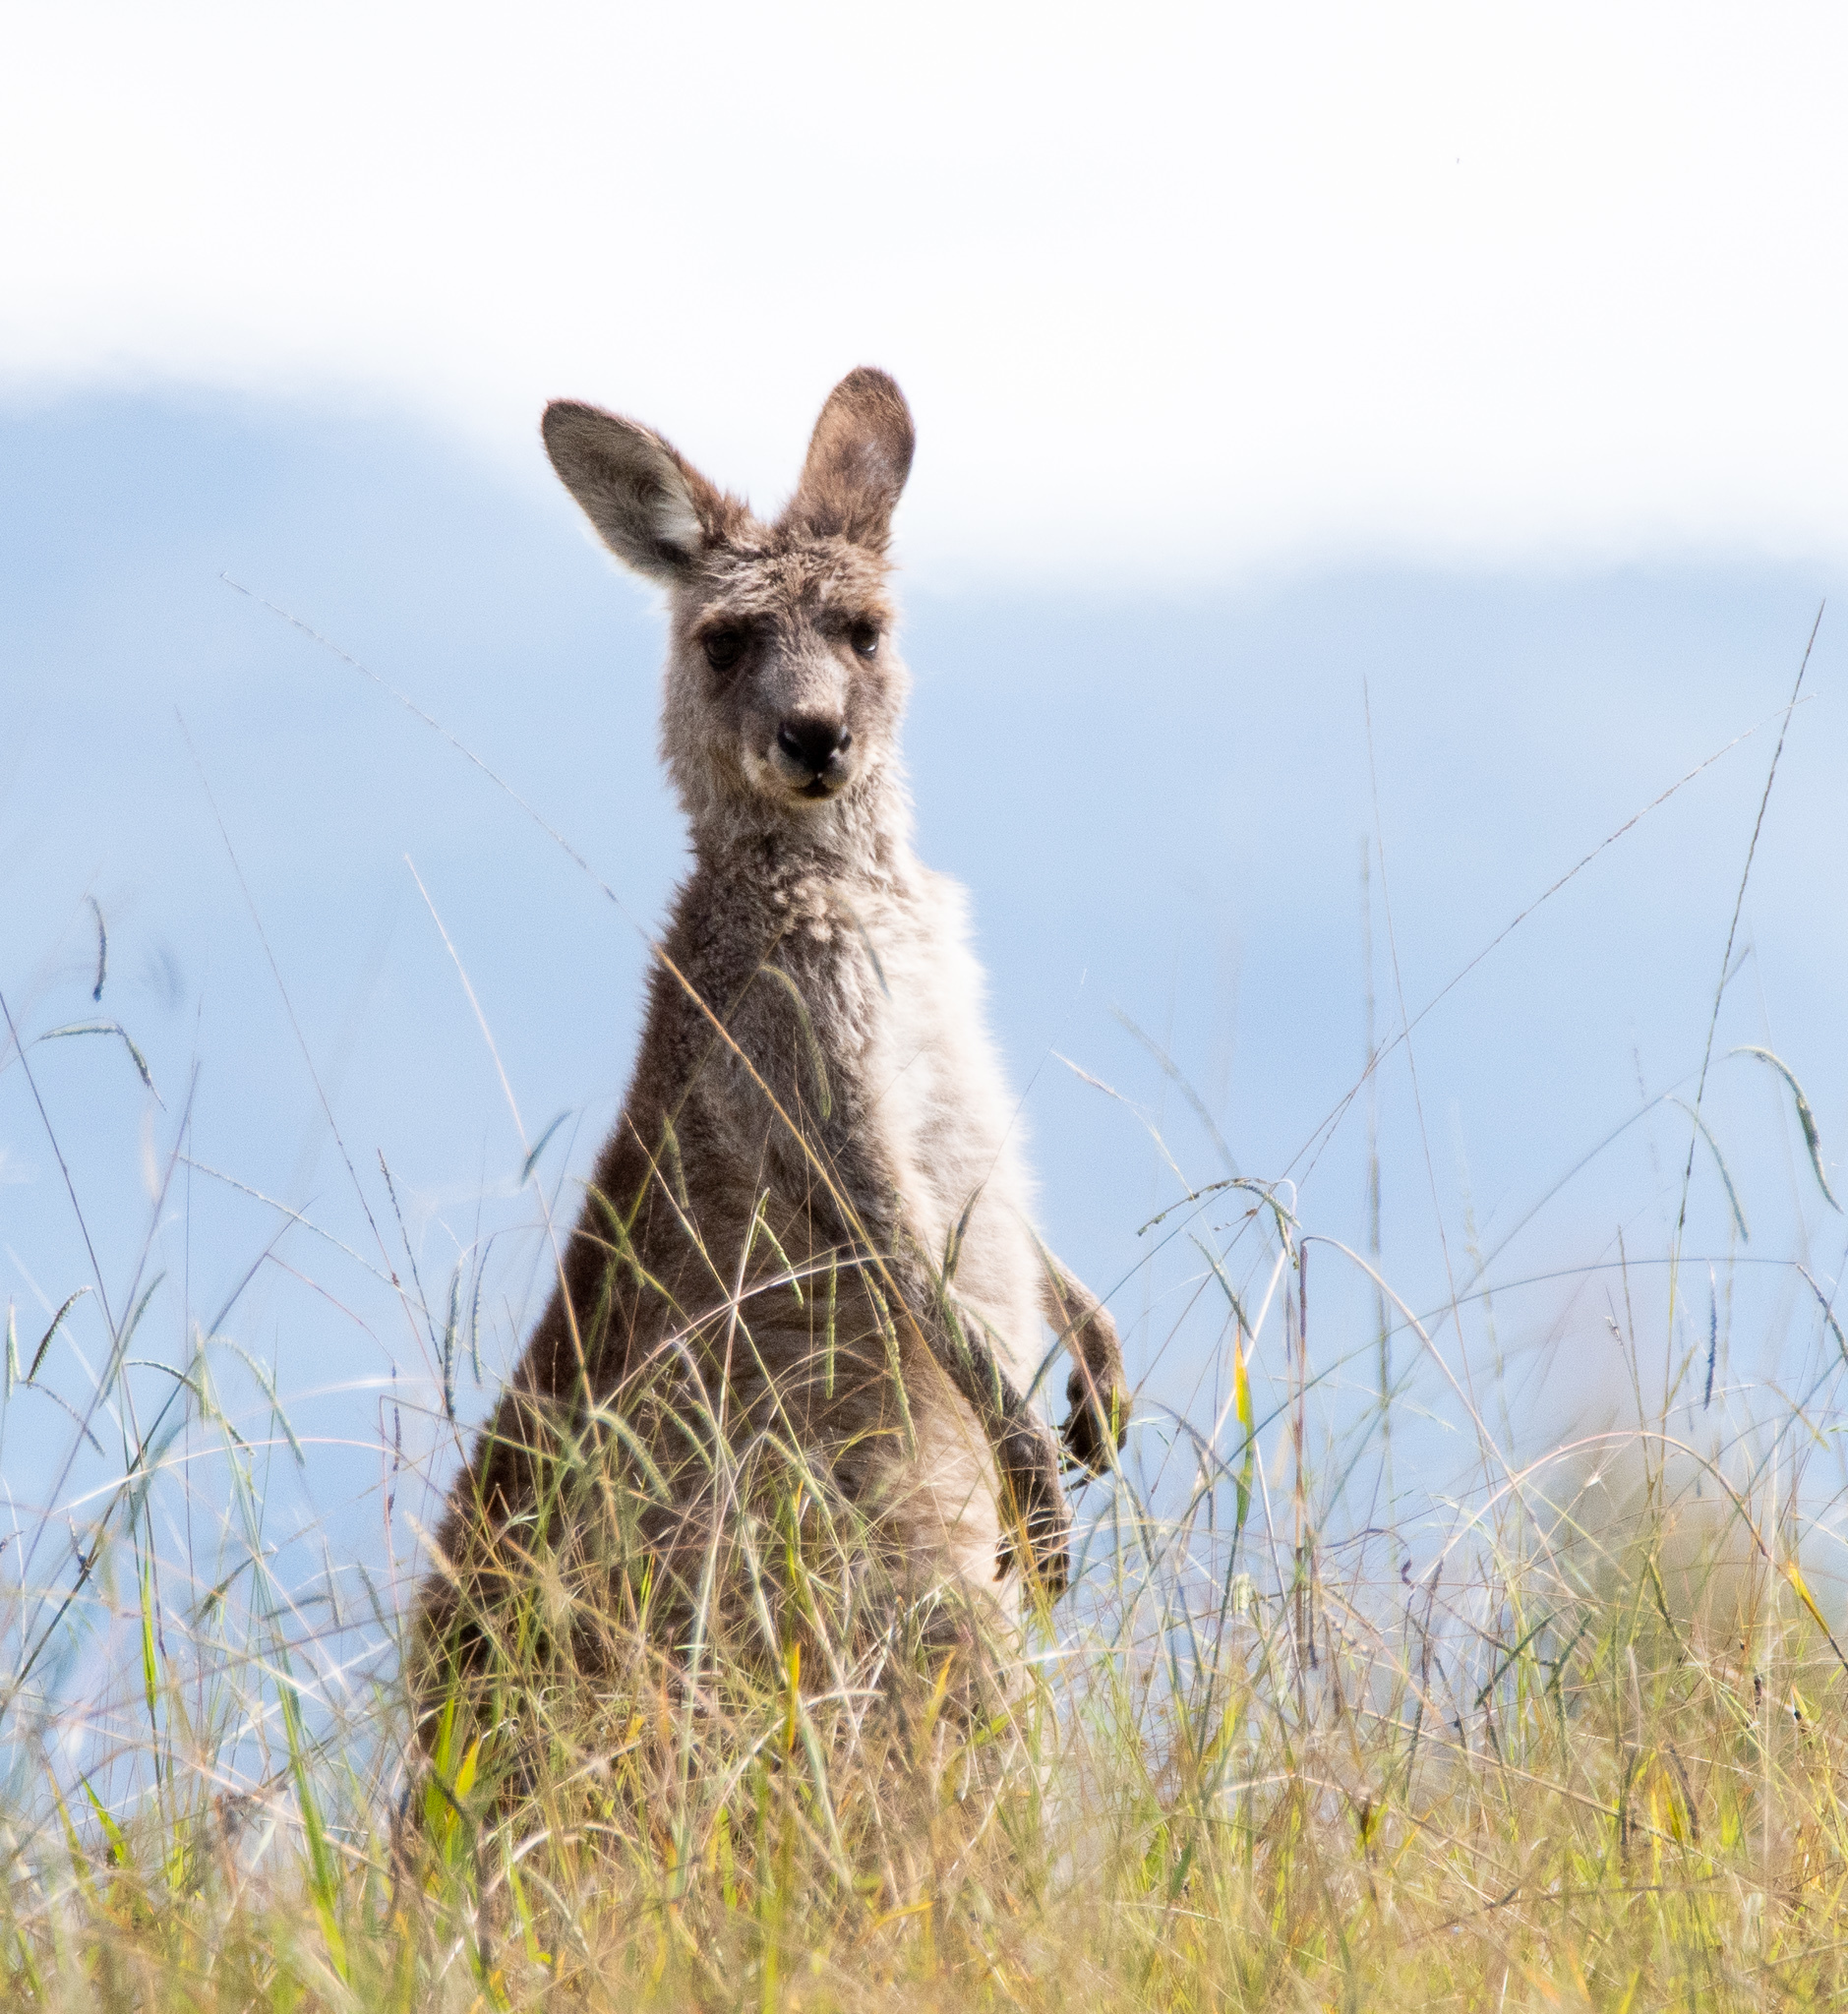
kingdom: Animalia
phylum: Chordata
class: Mammalia
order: Diprotodontia
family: Macropodidae
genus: Macropus
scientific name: Macropus giganteus
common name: Eastern grey kangaroo
